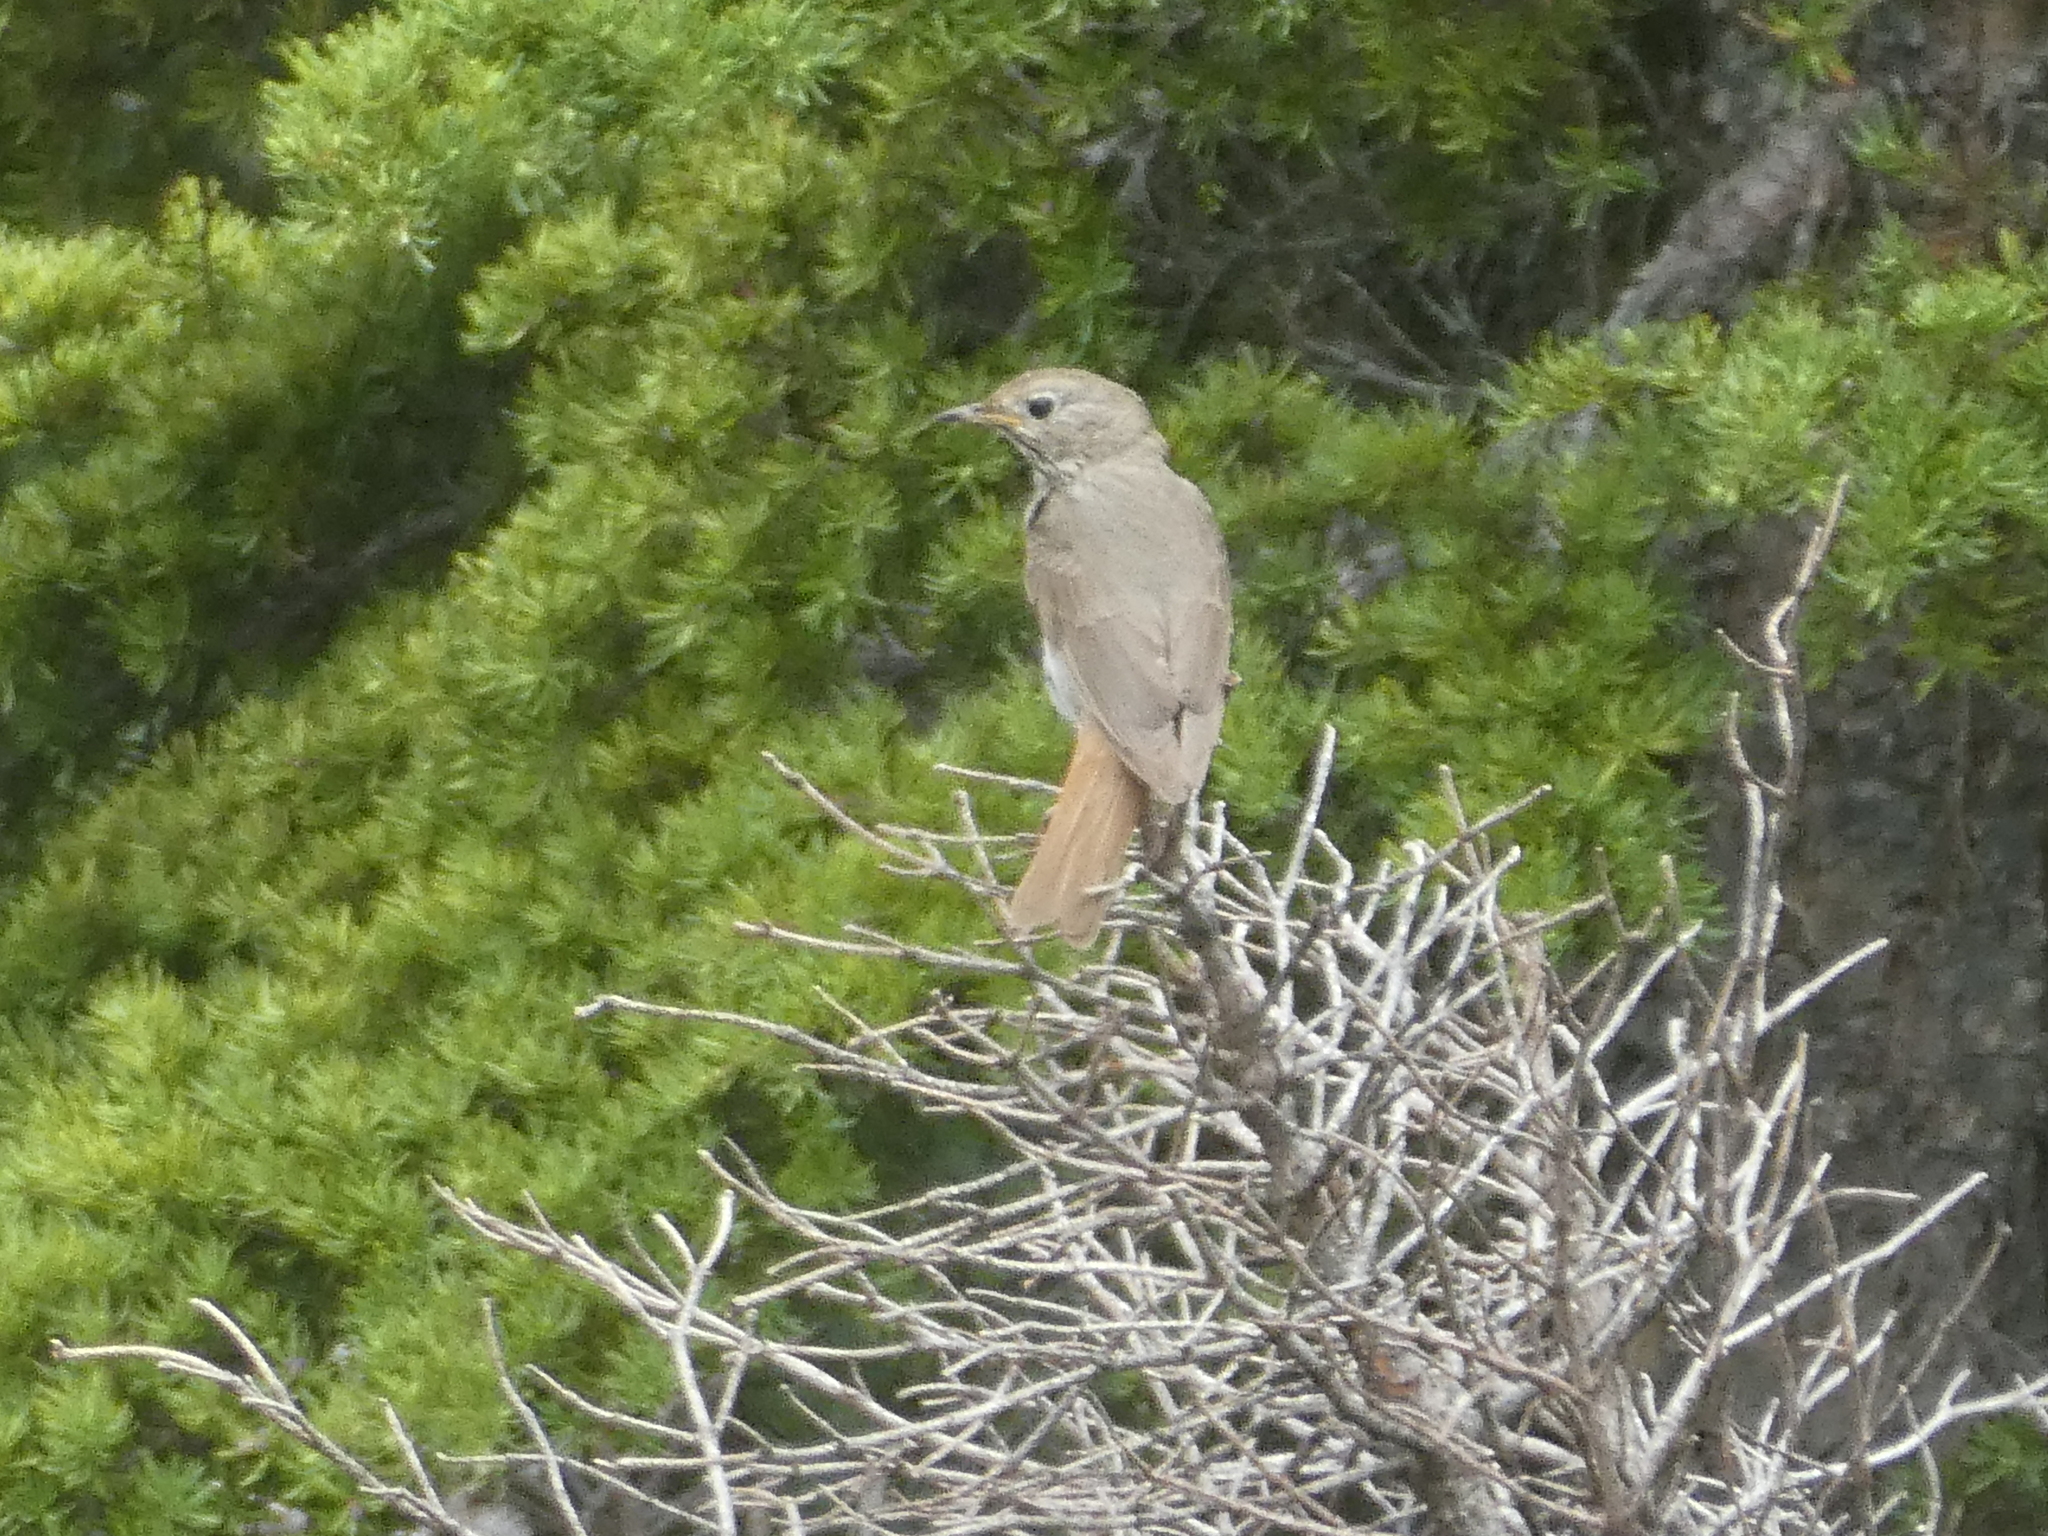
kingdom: Animalia
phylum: Chordata
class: Aves
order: Passeriformes
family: Turdidae
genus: Catharus
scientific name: Catharus guttatus
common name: Hermit thrush
